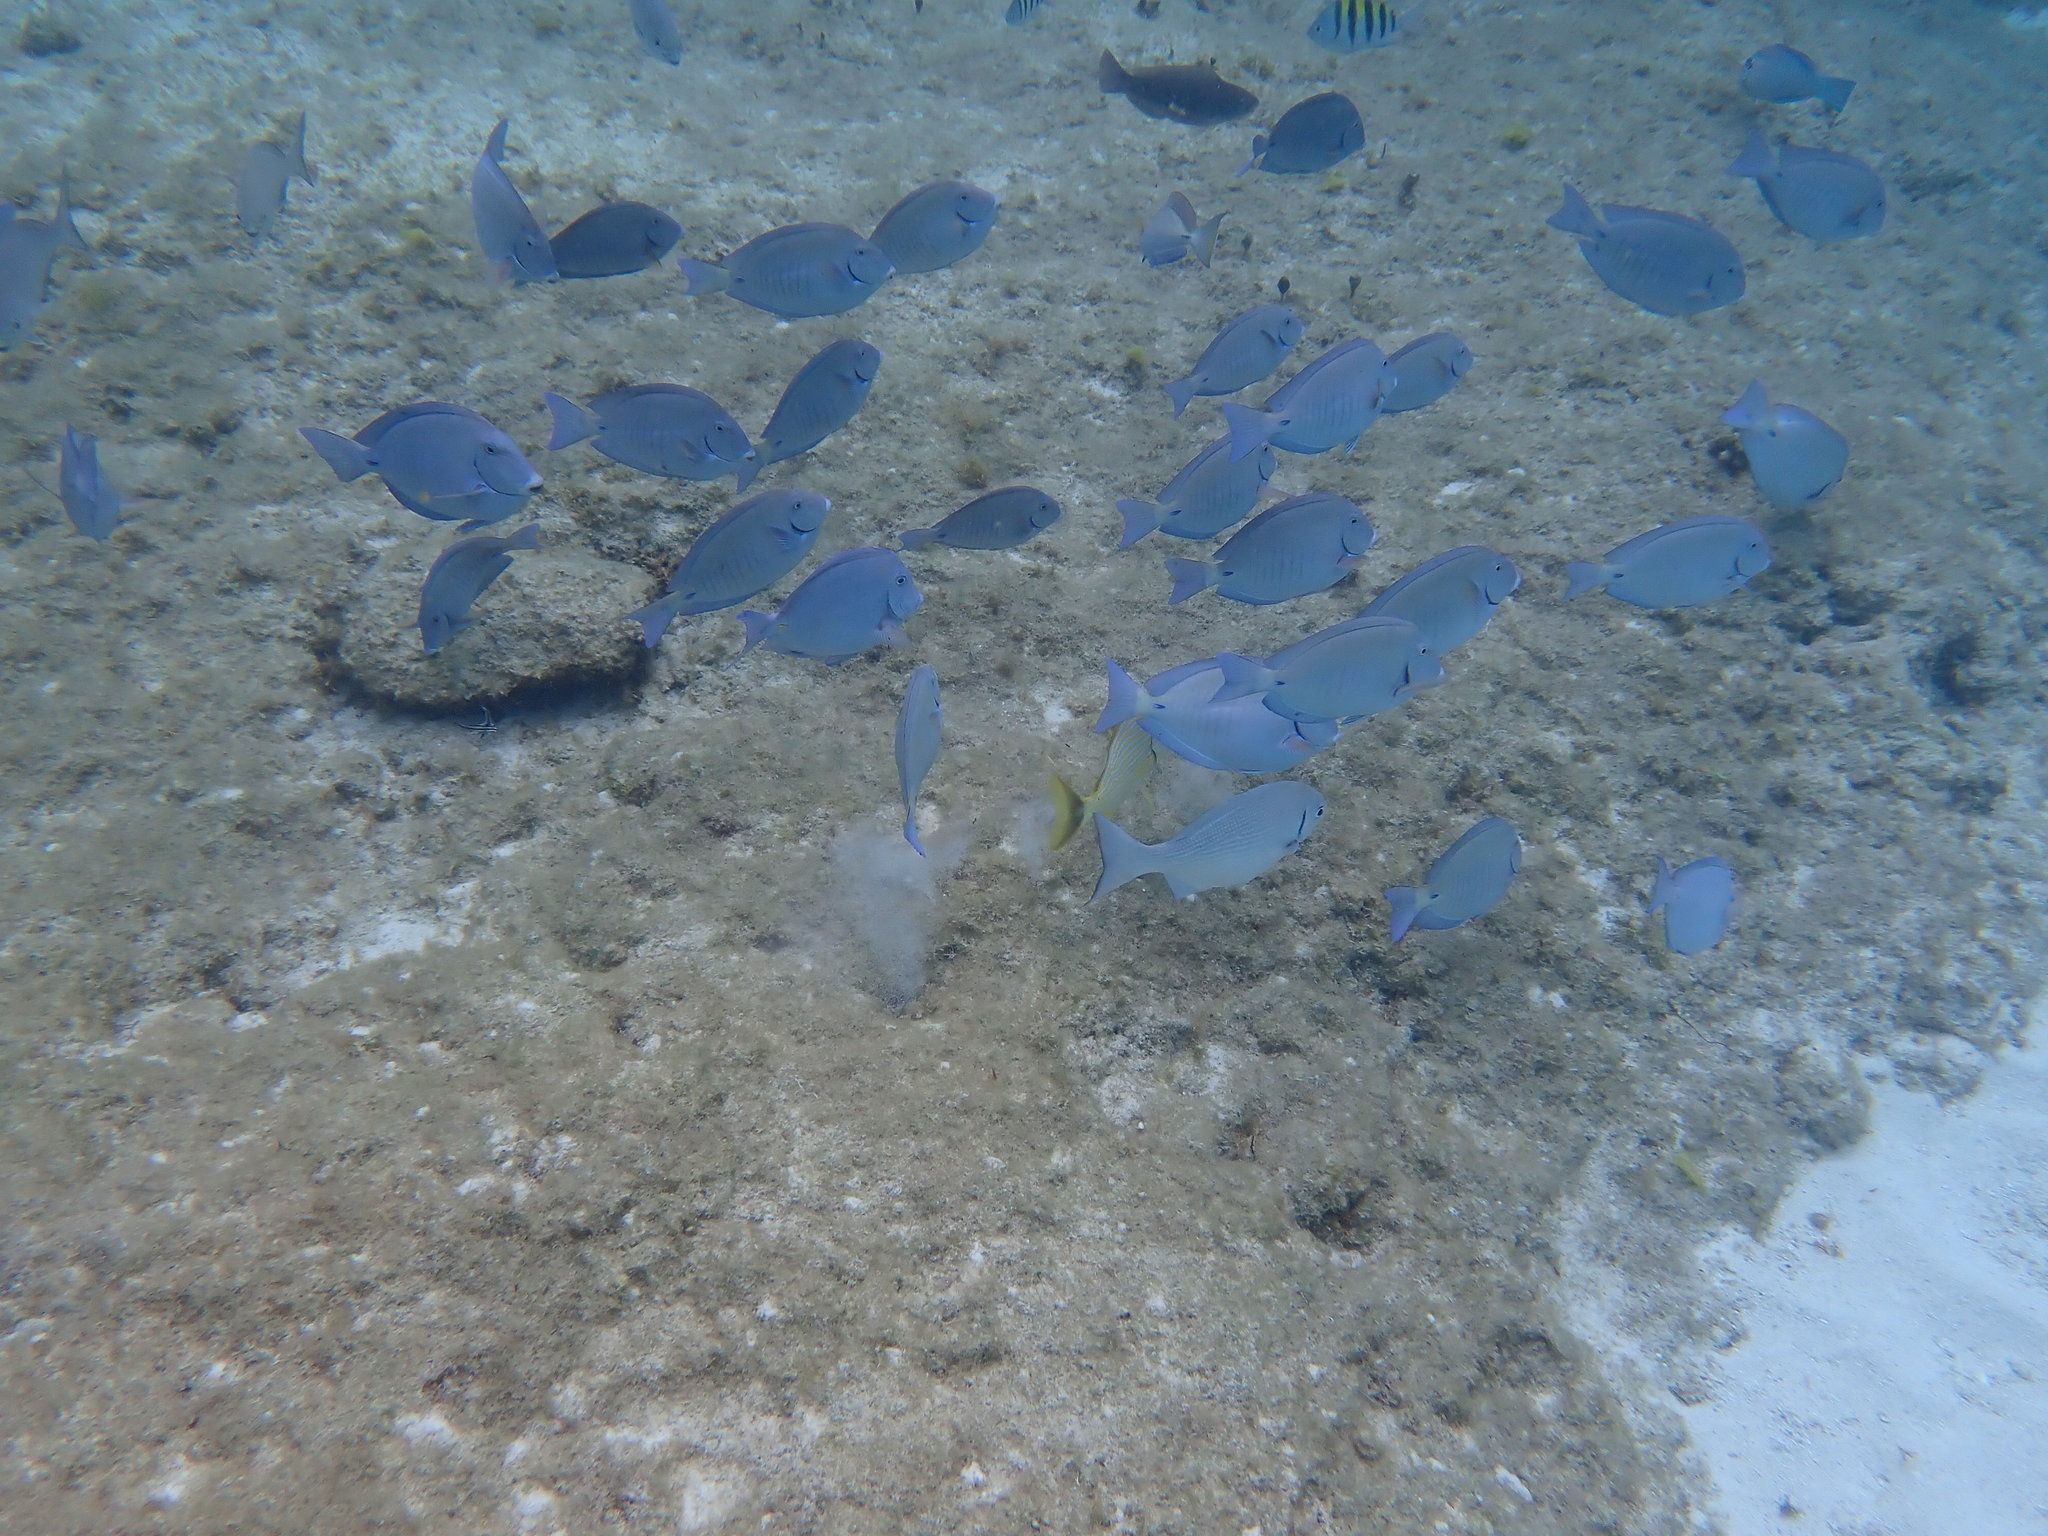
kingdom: Animalia
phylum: Chordata
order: Perciformes
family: Acanthuridae
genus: Acanthurus
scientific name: Acanthurus chirurgus
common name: Doctorfish
